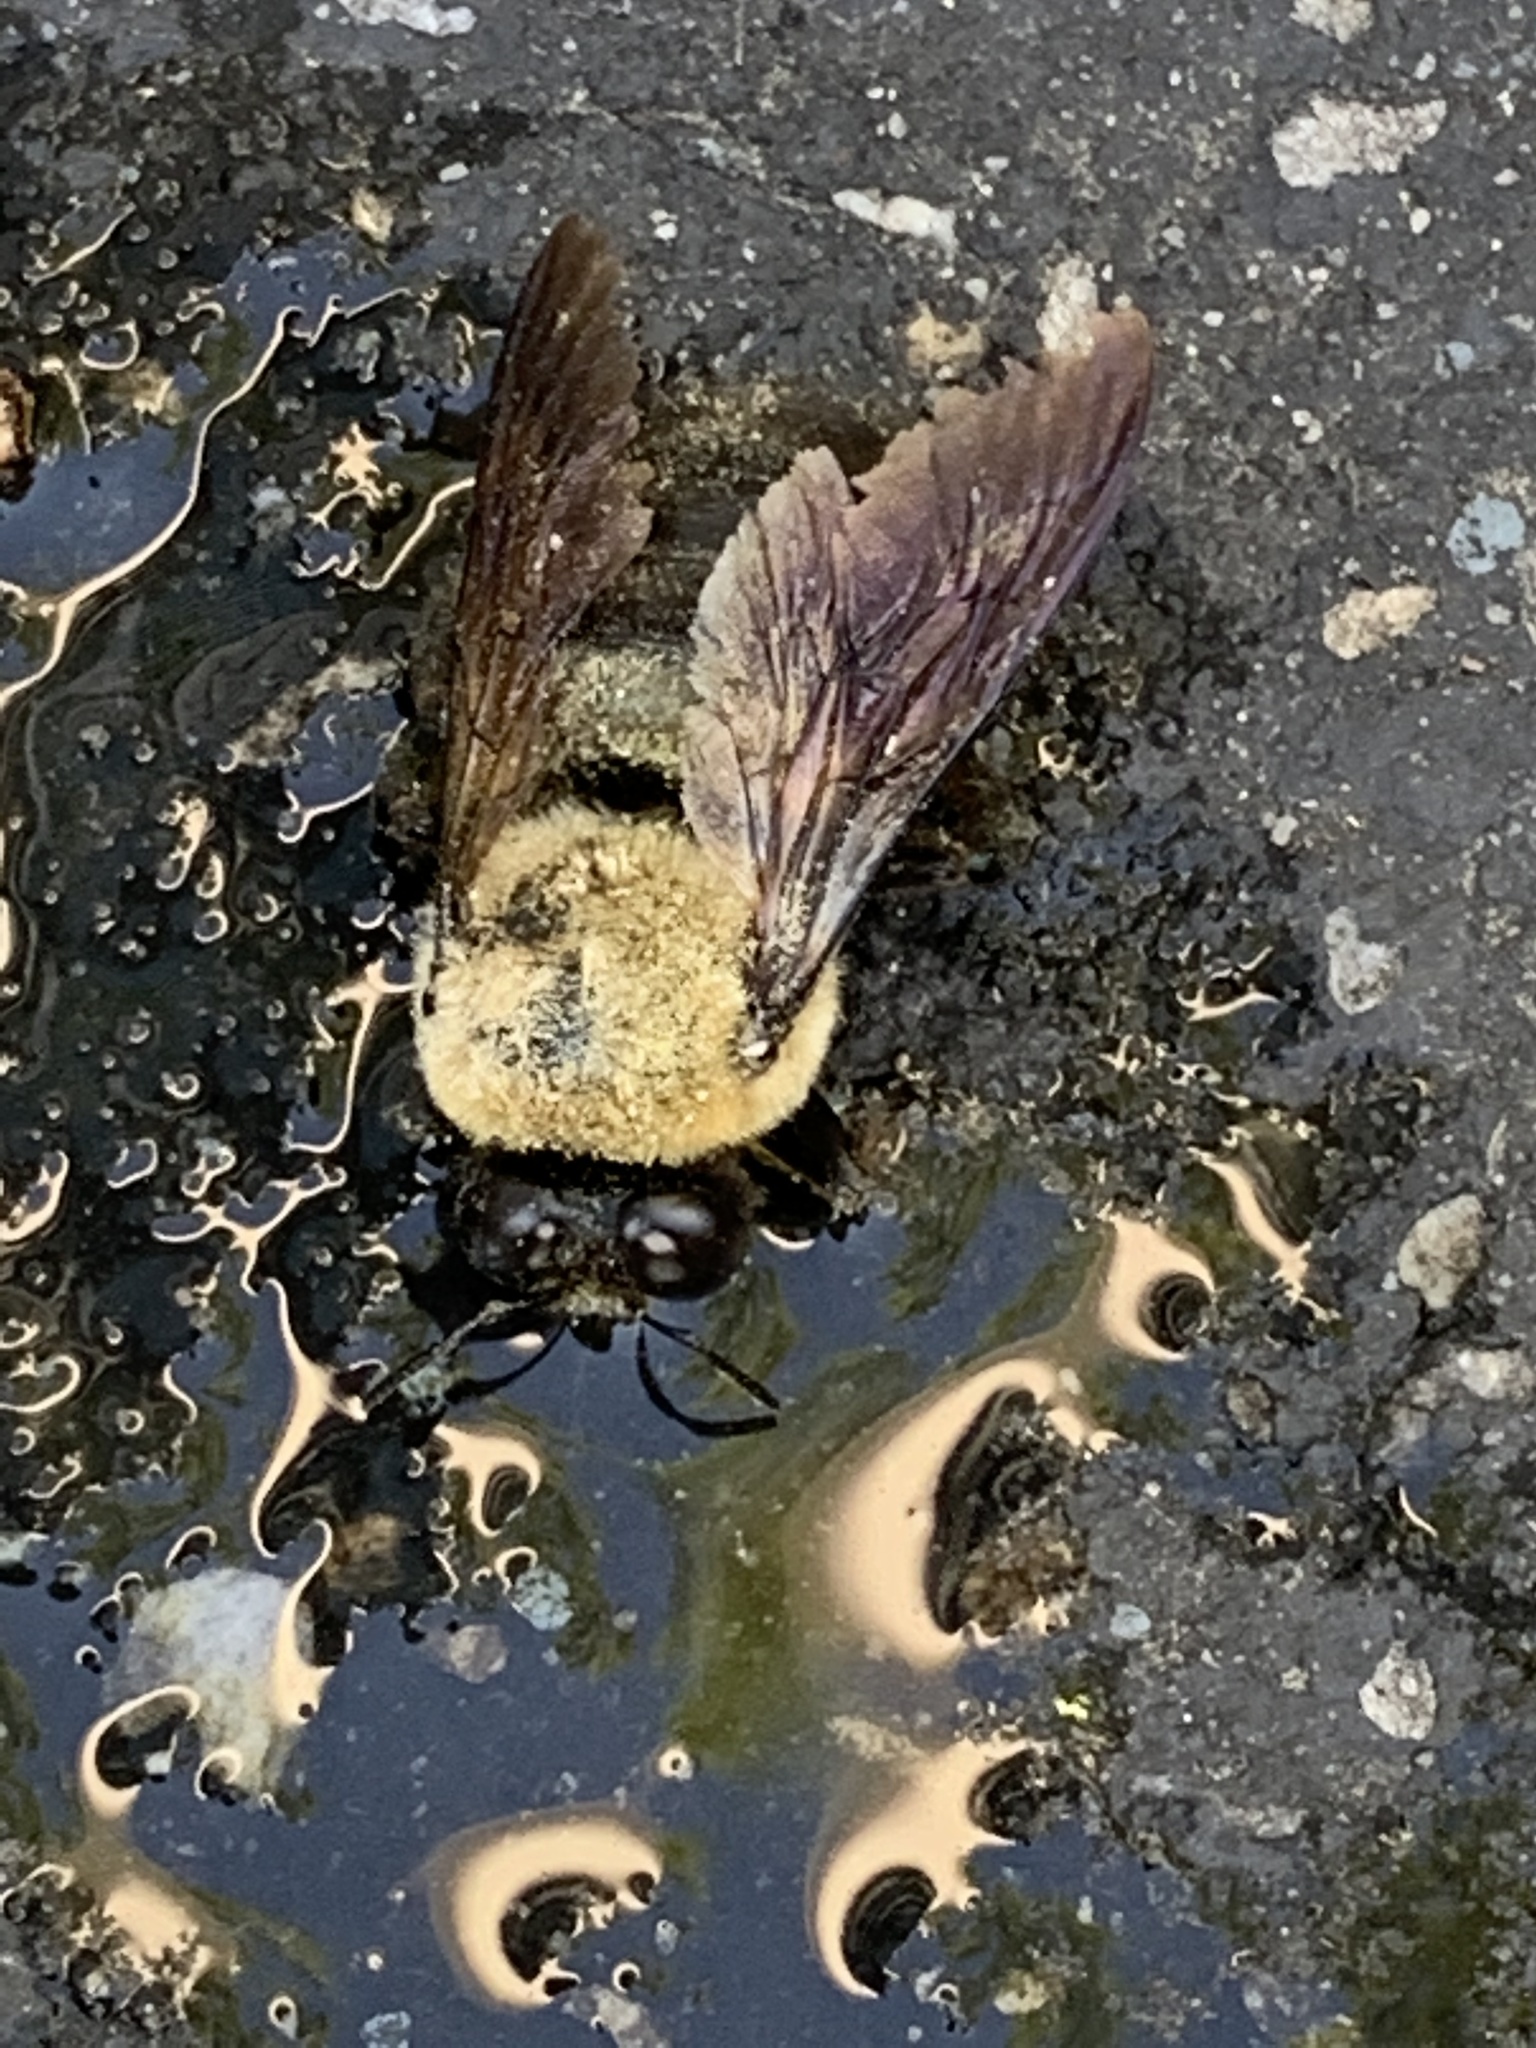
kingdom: Animalia
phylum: Arthropoda
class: Insecta
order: Hymenoptera
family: Apidae
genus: Xylocopa
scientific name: Xylocopa virginica
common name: Carpenter bee
